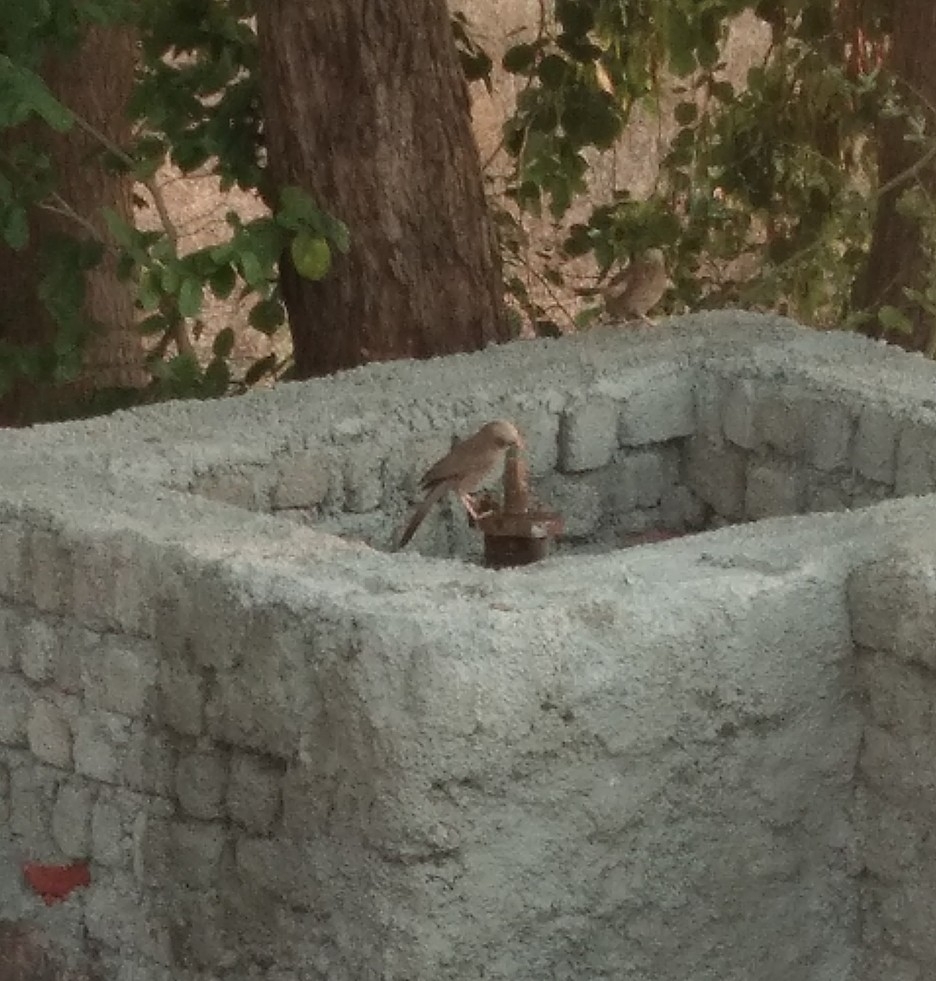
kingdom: Animalia
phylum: Chordata
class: Aves
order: Passeriformes
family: Leiothrichidae
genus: Turdoides
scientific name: Turdoides affinis
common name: Yellow-billed babbler
